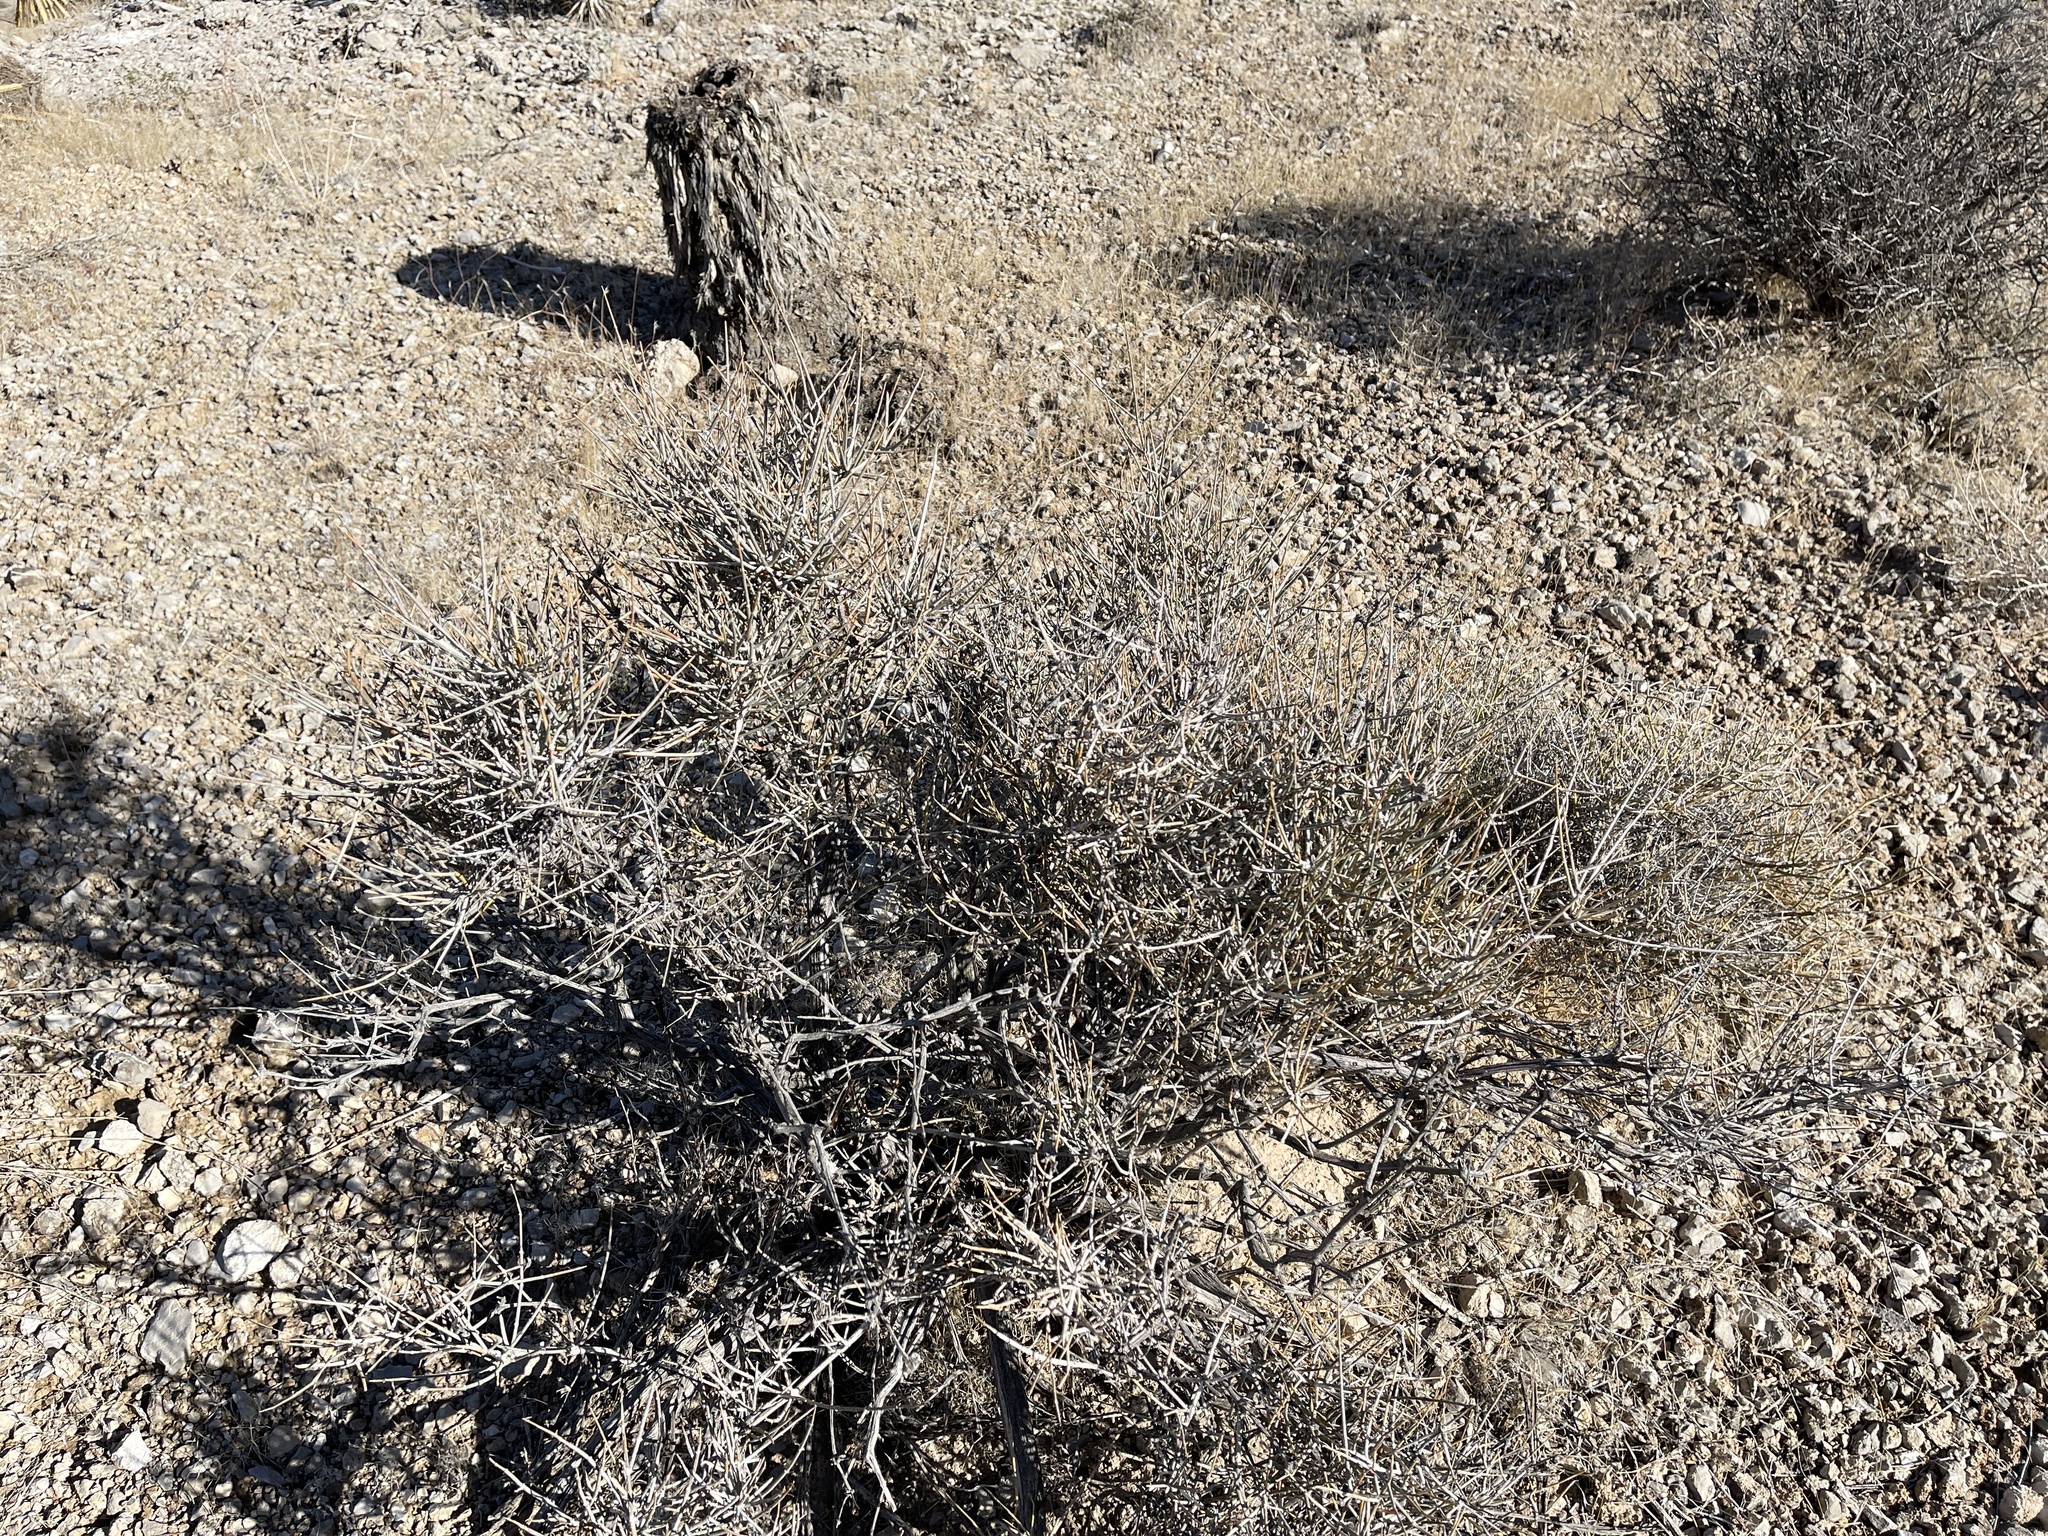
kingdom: Plantae
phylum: Tracheophyta
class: Gnetopsida
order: Ephedrales
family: Ephedraceae
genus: Ephedra
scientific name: Ephedra nevadensis
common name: Gray ephedra
